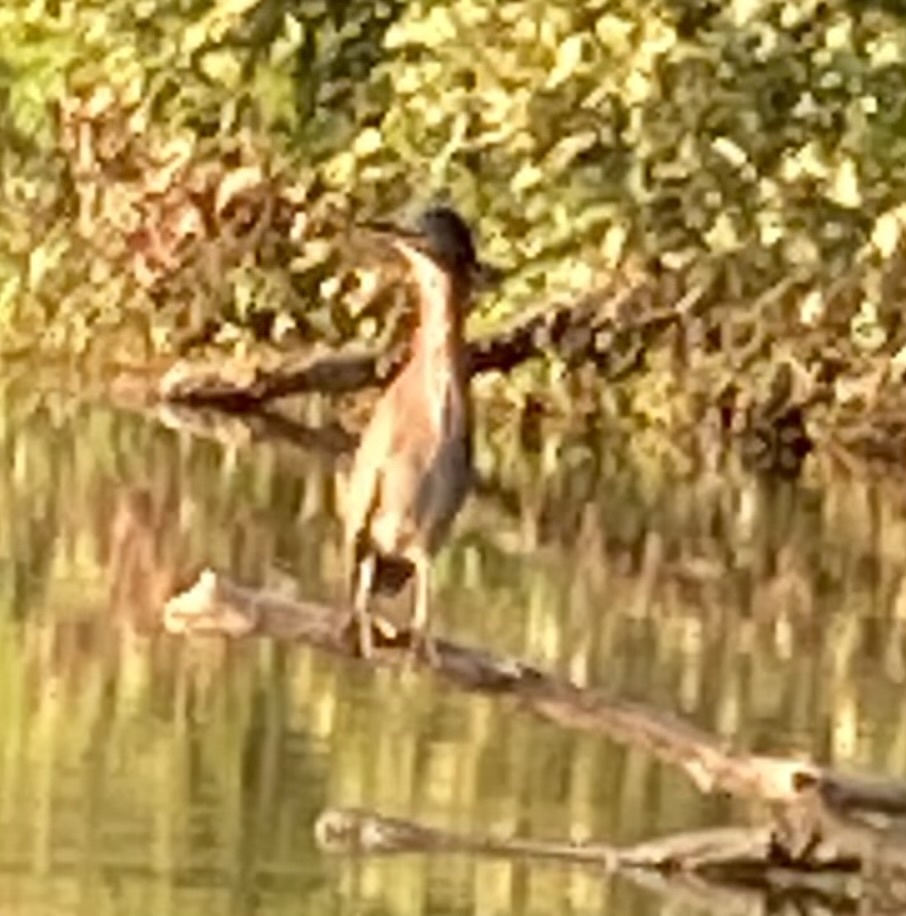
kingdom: Animalia
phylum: Chordata
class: Aves
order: Pelecaniformes
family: Ardeidae
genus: Butorides
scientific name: Butorides virescens
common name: Green heron
